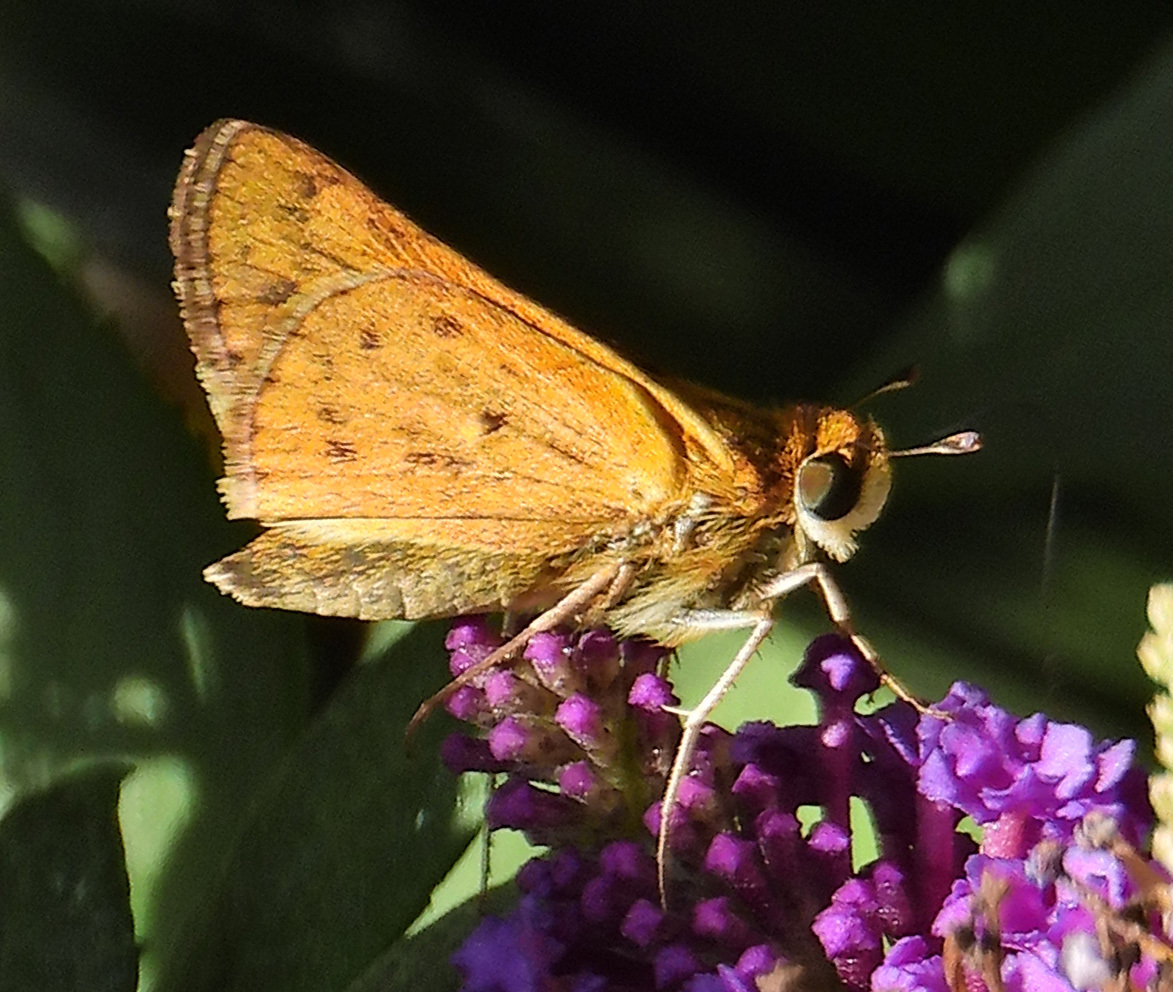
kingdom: Animalia
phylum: Arthropoda
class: Insecta
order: Lepidoptera
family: Hesperiidae
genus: Hylephila
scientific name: Hylephila phyleus
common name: Fiery skipper
